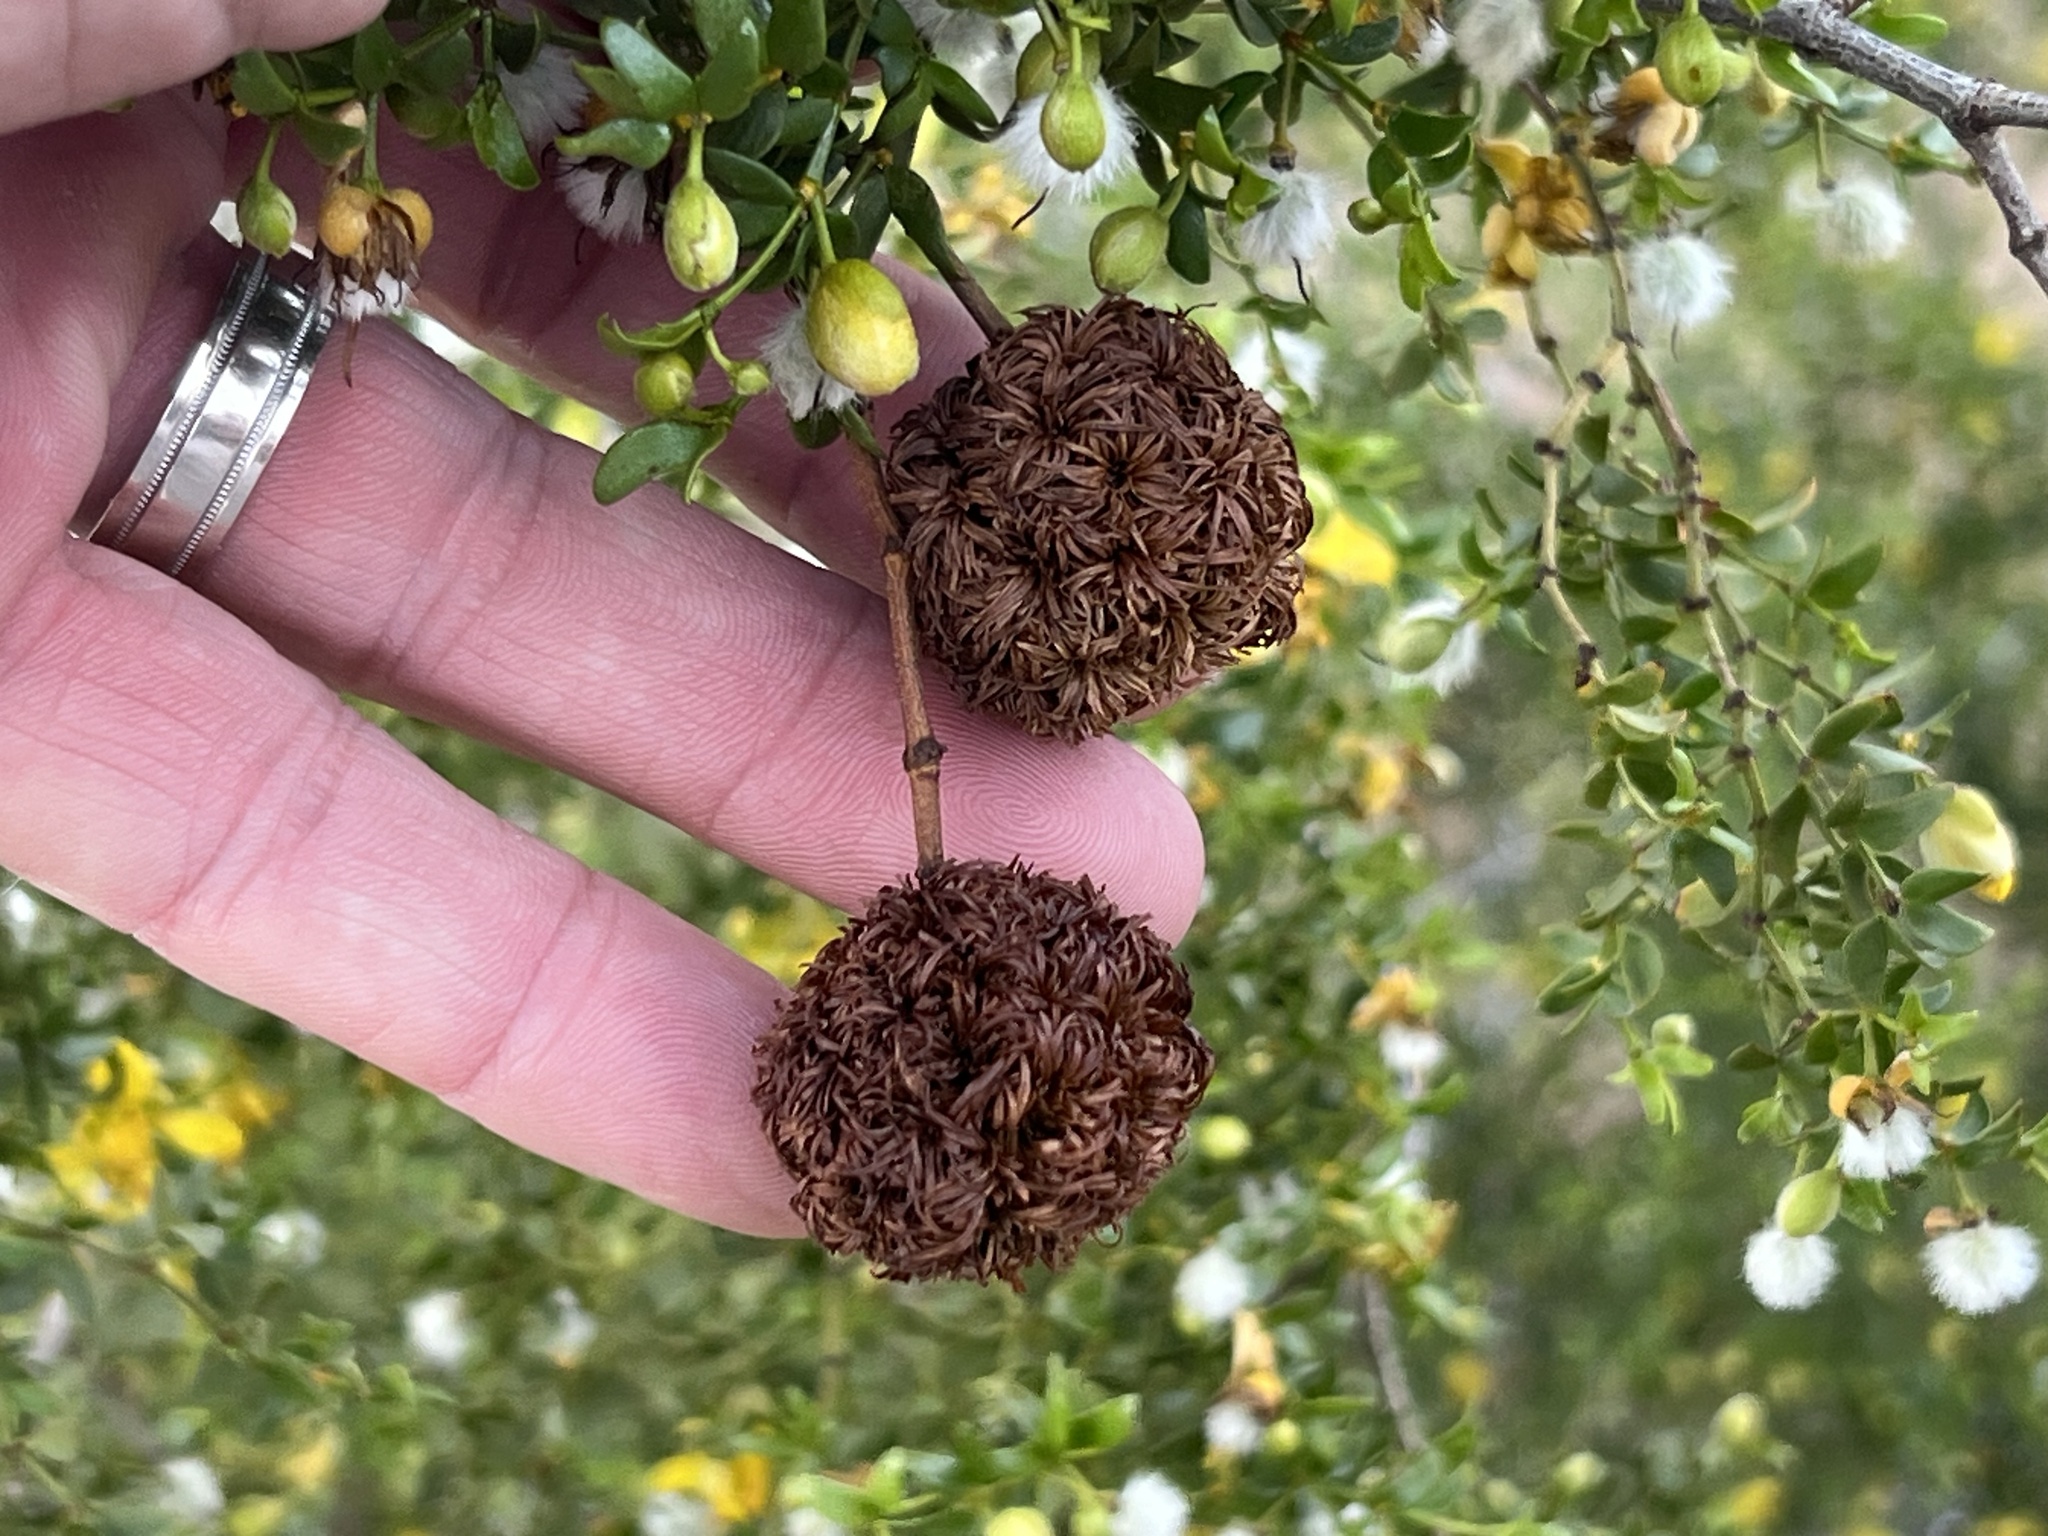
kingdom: Animalia
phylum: Arthropoda
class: Insecta
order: Diptera
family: Cecidomyiidae
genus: Asphondylia
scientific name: Asphondylia auripila
